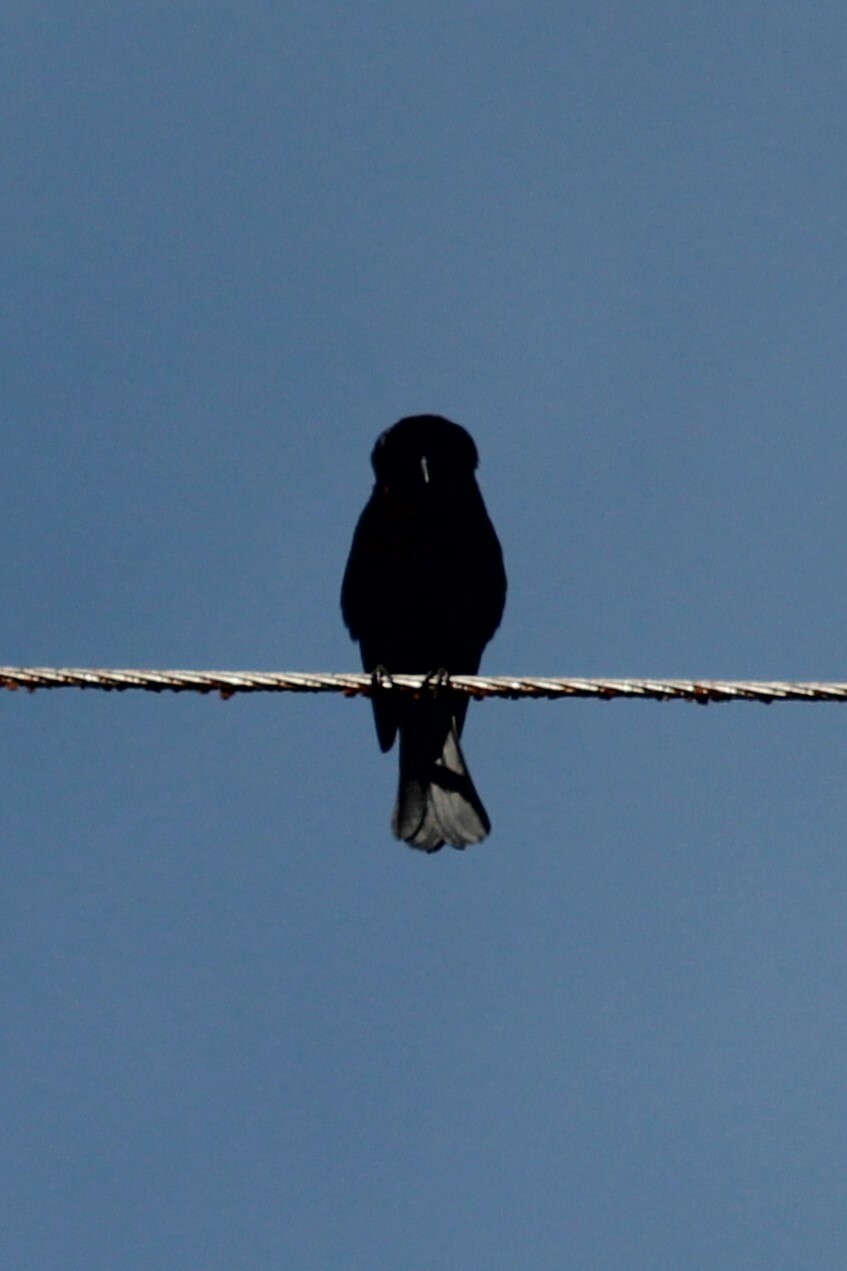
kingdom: Animalia
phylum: Chordata
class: Aves
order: Passeriformes
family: Icteridae
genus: Molothrus
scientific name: Molothrus bonariensis
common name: Shiny cowbird
